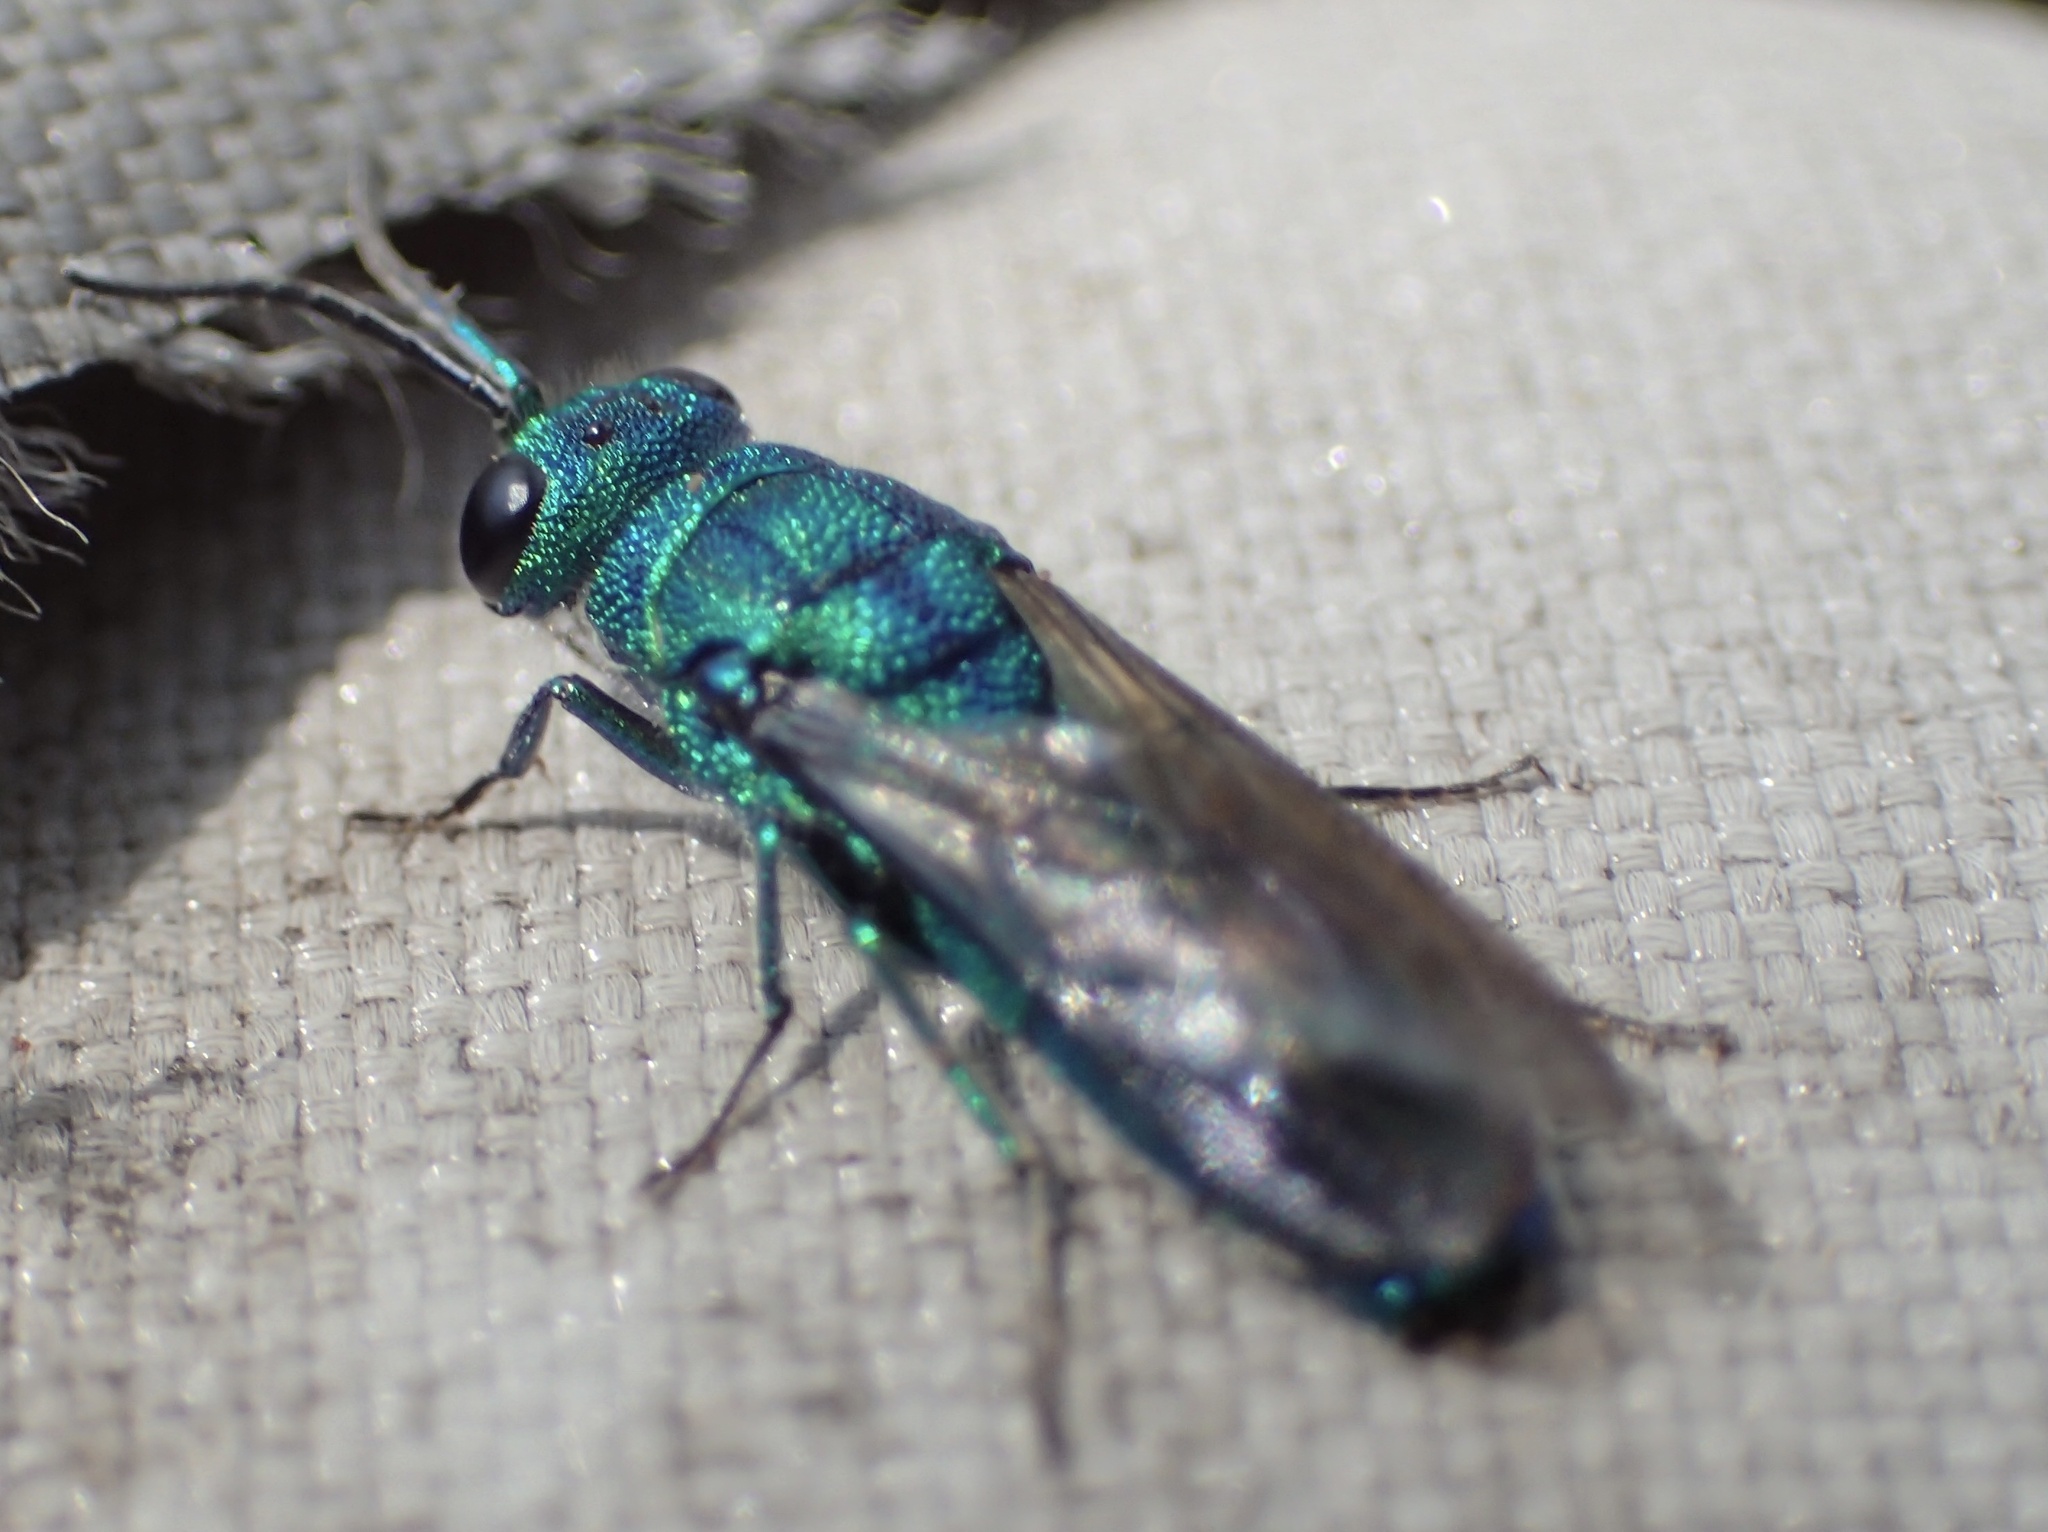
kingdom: Animalia
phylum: Arthropoda
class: Insecta
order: Hymenoptera
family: Chrysididae
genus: Chrysis
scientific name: Chrysis
